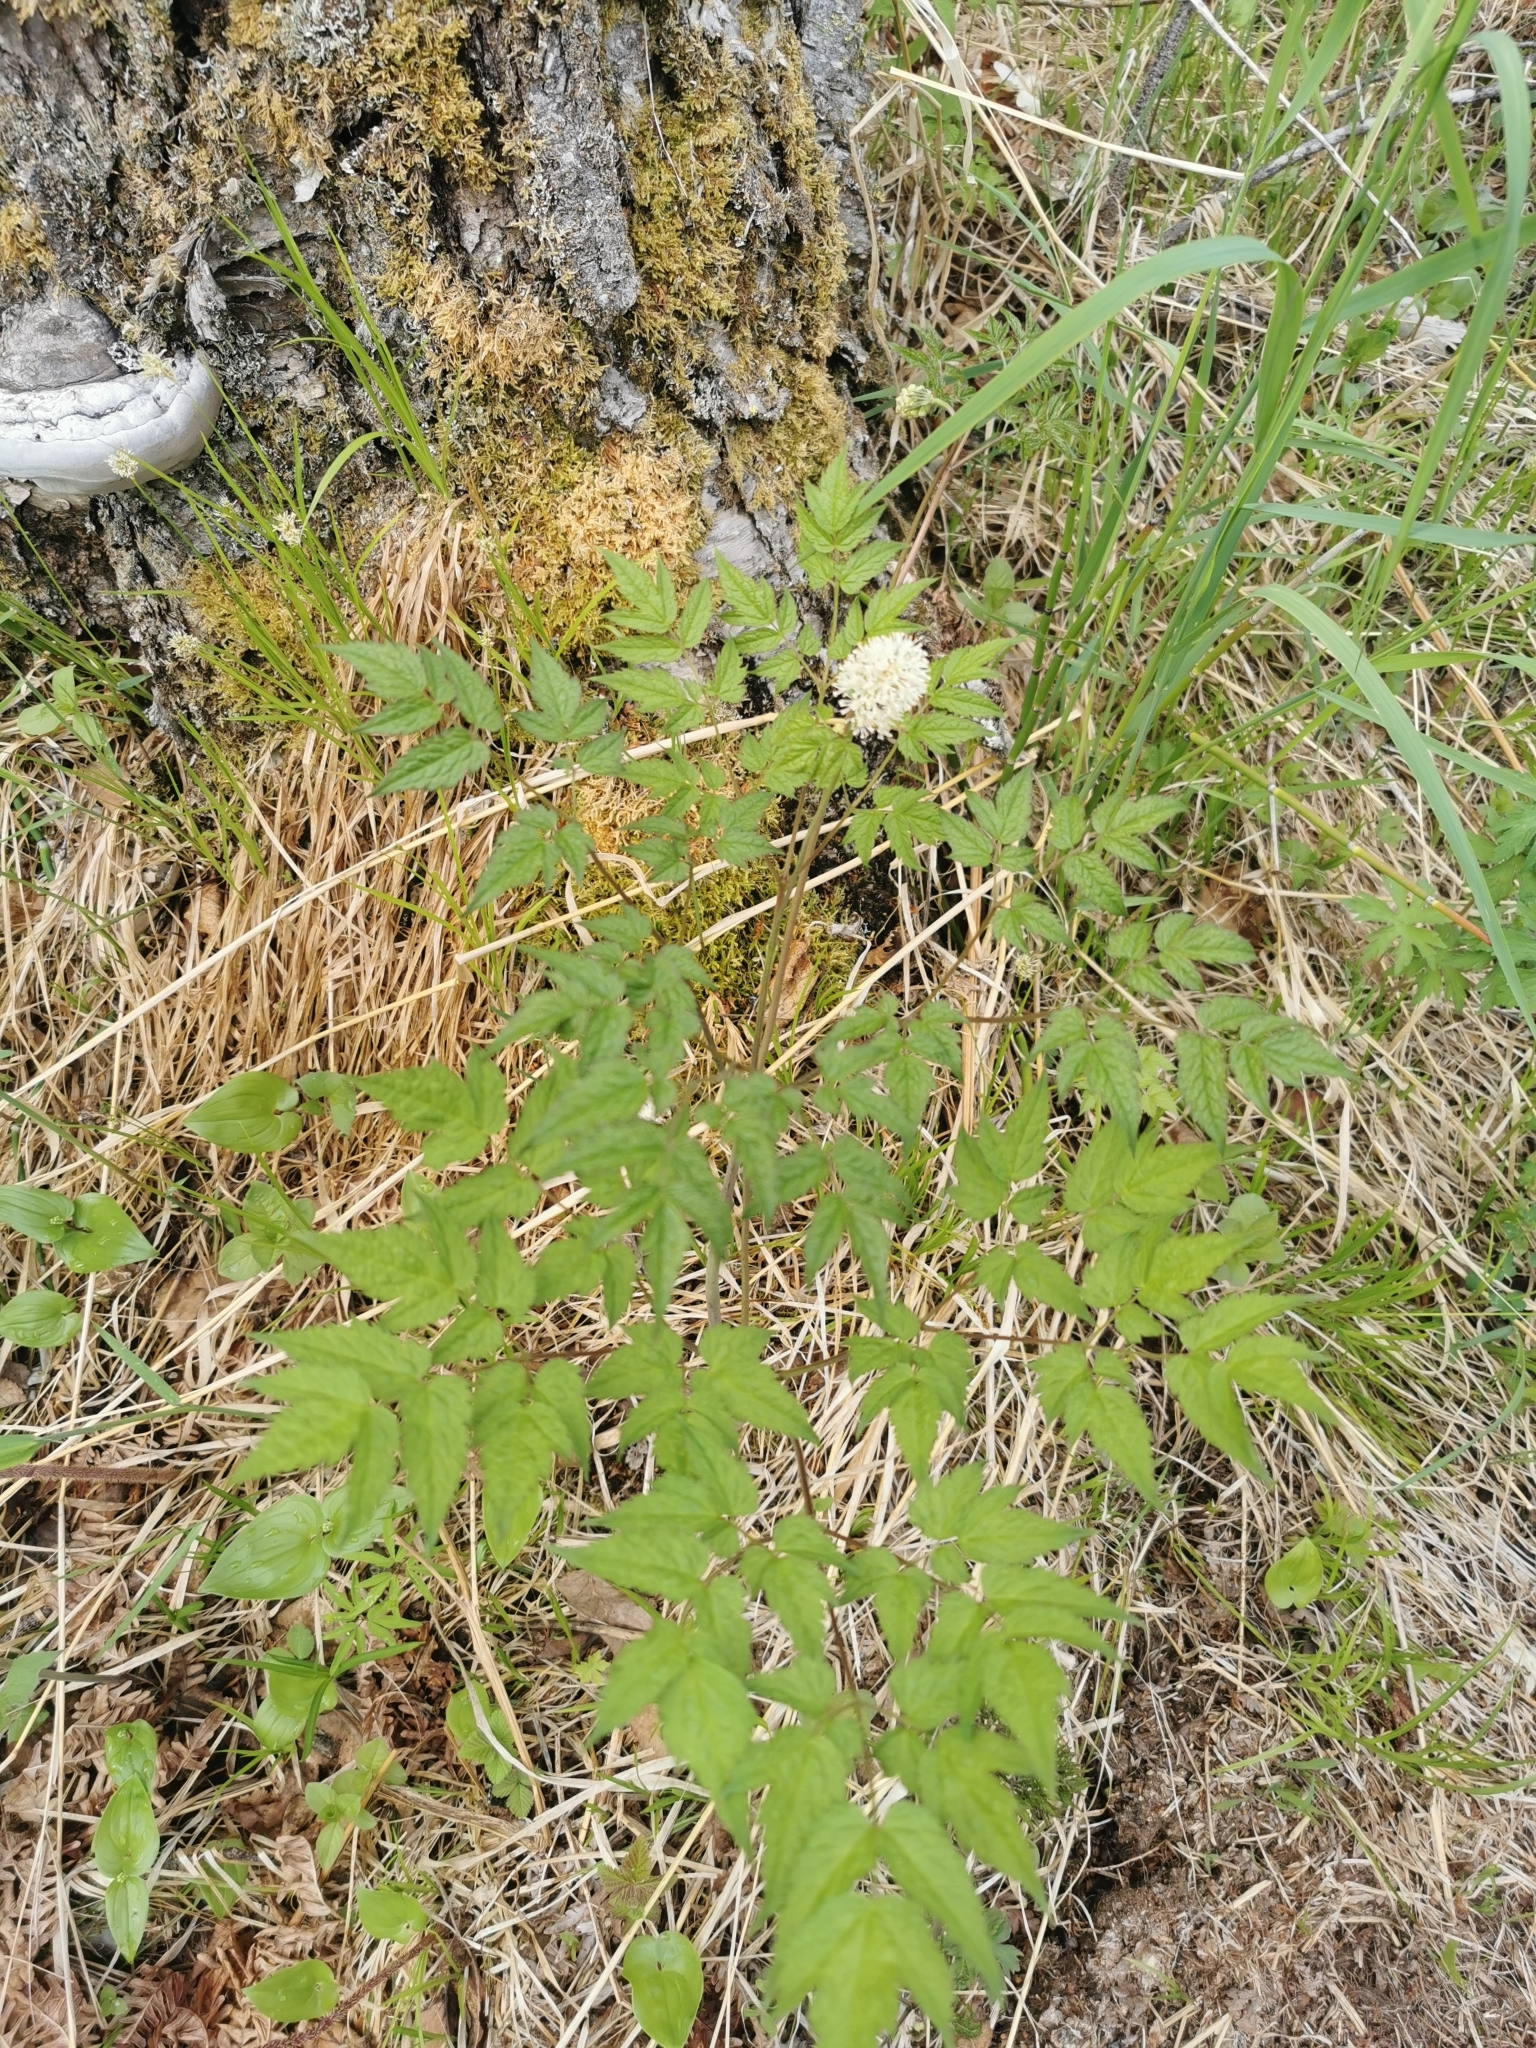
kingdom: Plantae
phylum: Tracheophyta
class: Magnoliopsida
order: Ranunculales
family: Ranunculaceae
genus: Actaea
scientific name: Actaea erythrocarpa
